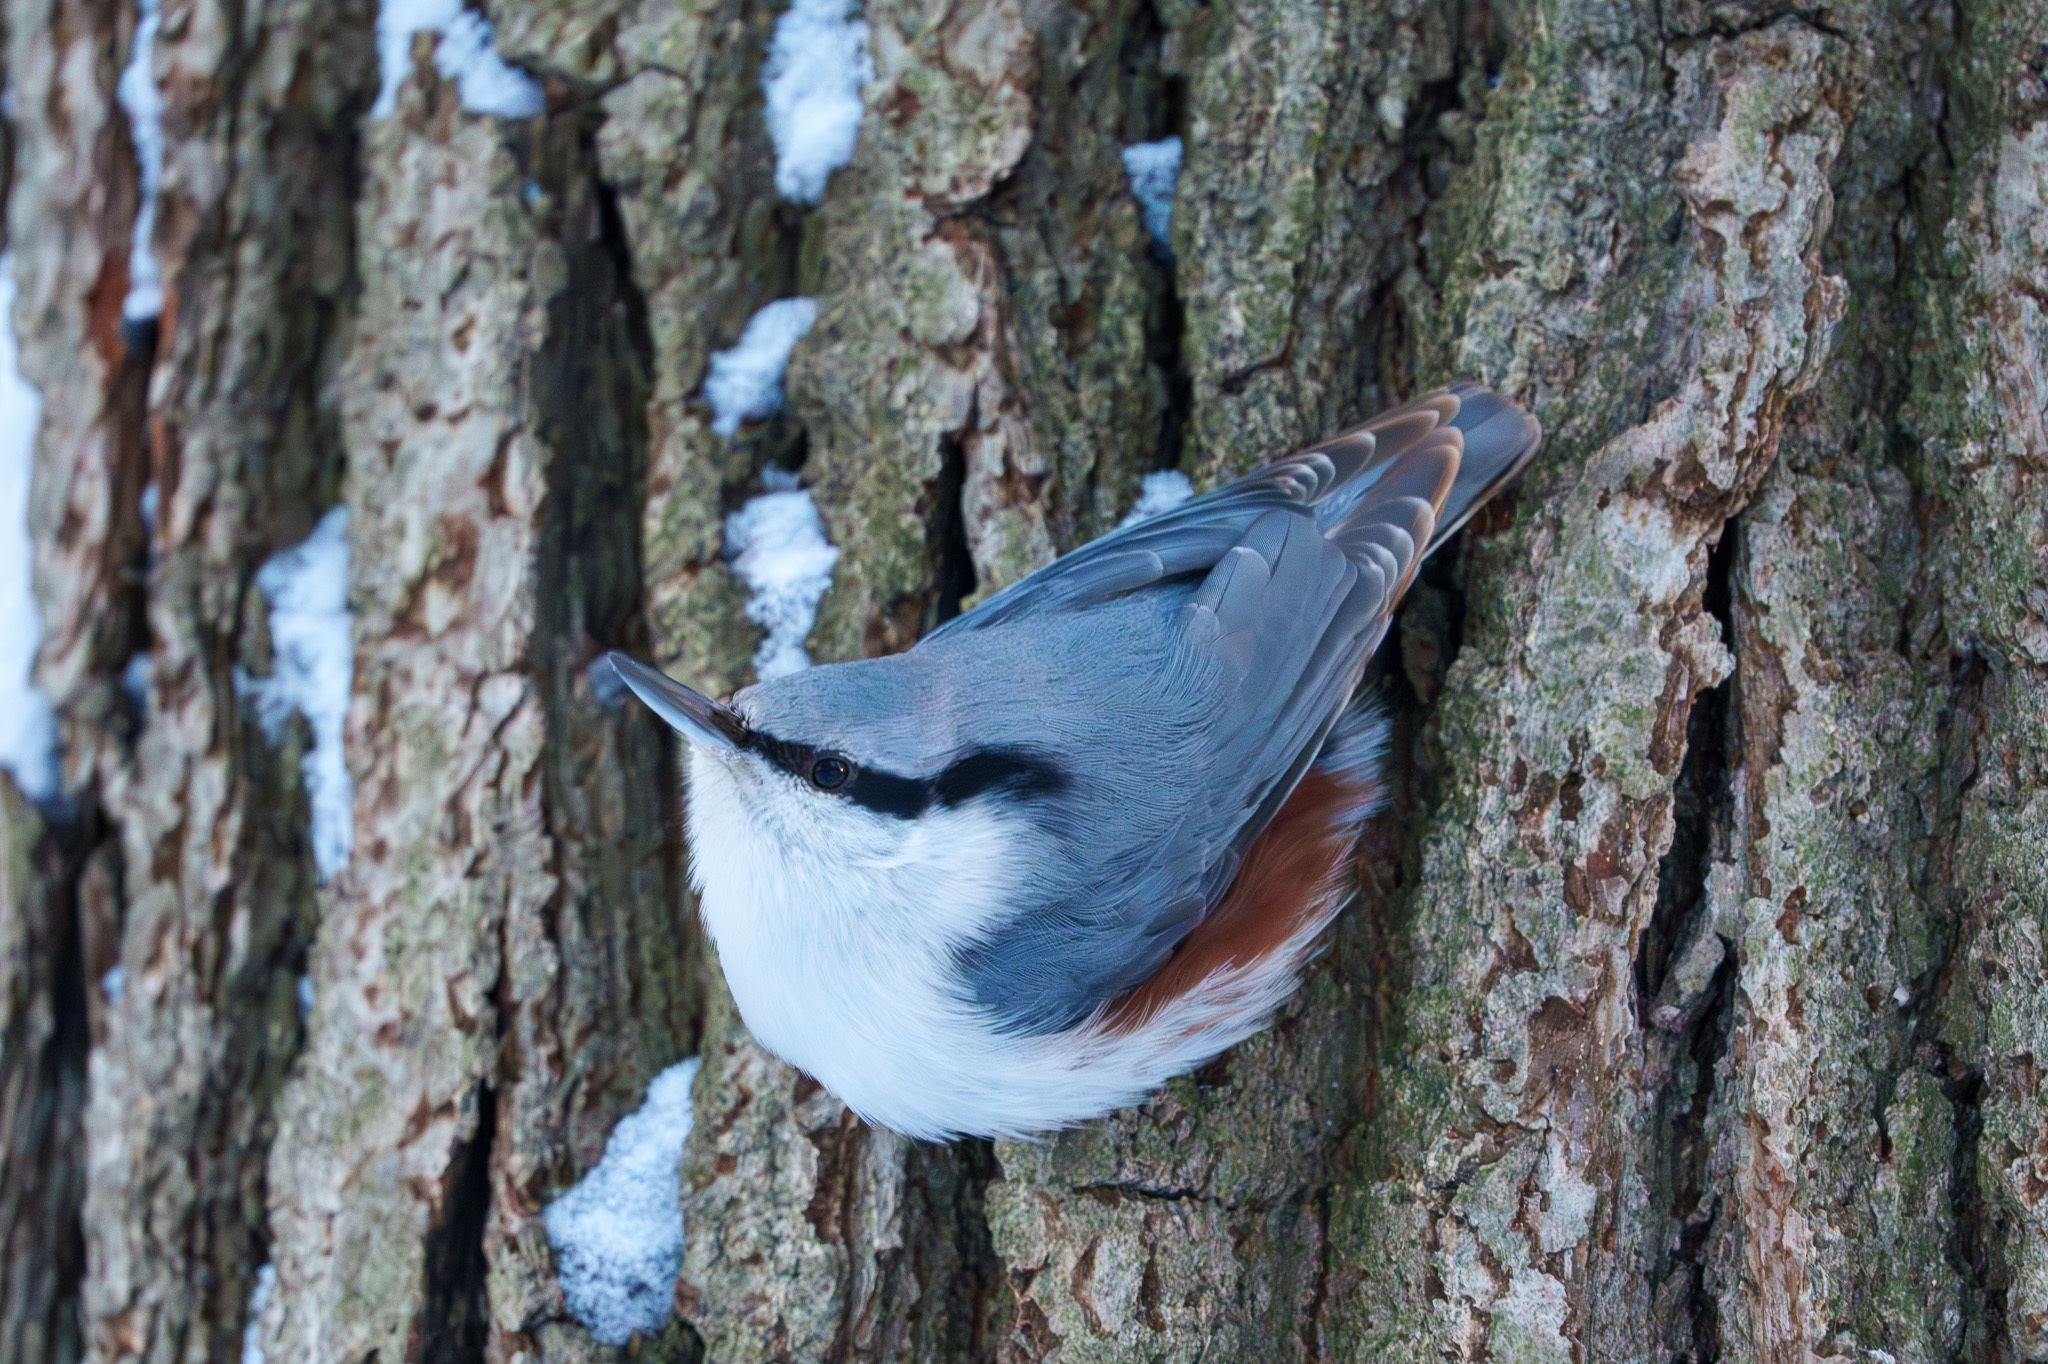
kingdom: Animalia
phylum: Chordata
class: Aves
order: Passeriformes
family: Sittidae
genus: Sitta
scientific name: Sitta europaea
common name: Eurasian nuthatch
